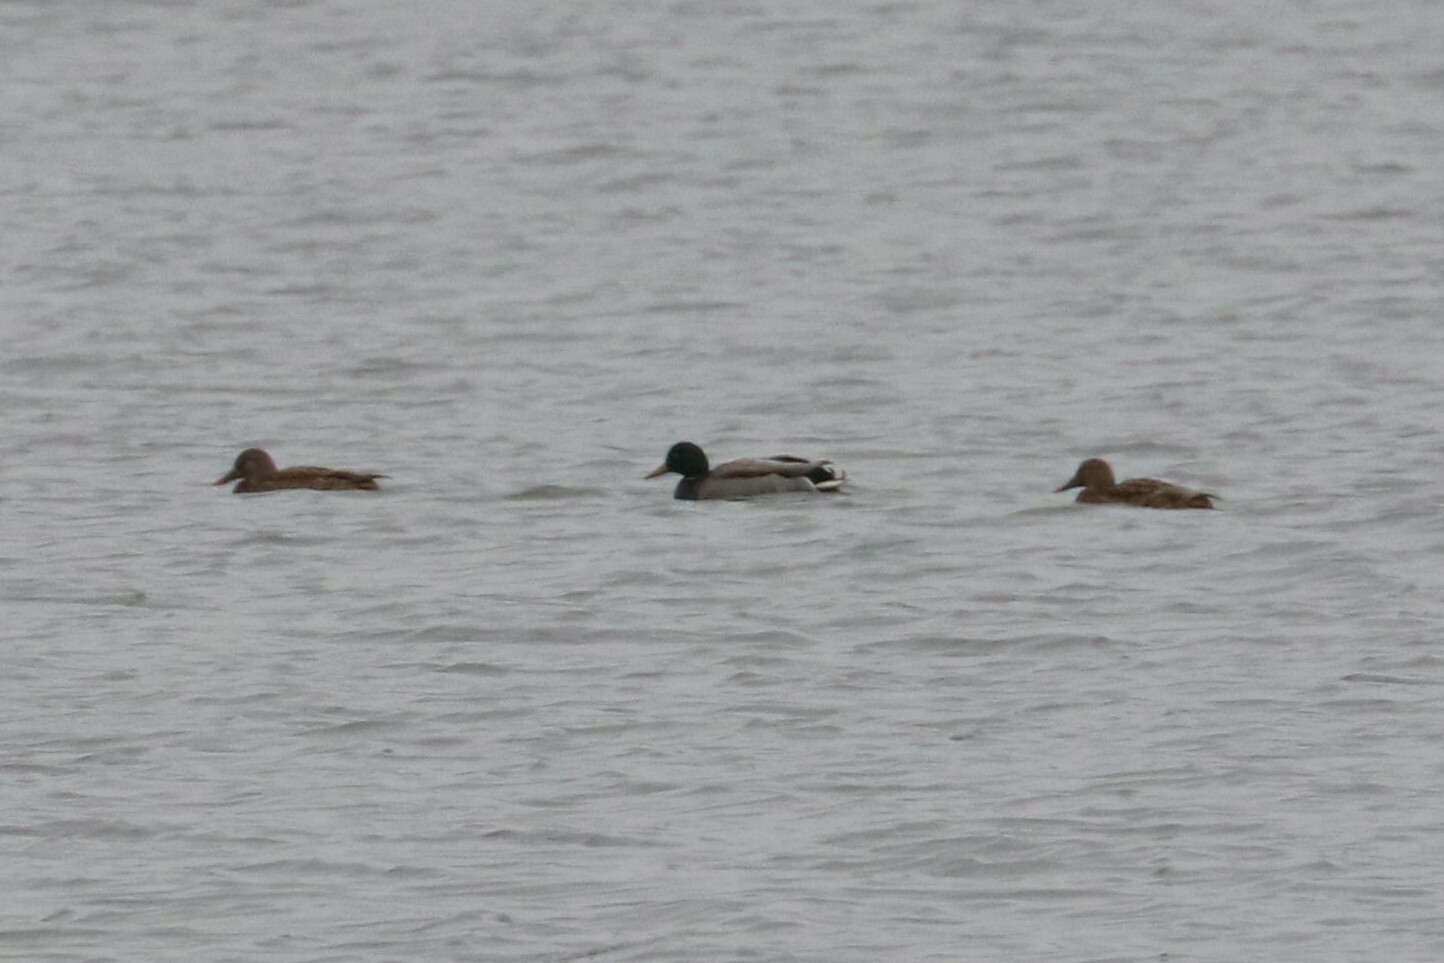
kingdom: Animalia
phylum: Chordata
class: Aves
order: Anseriformes
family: Anatidae
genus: Anas
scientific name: Anas platyrhynchos
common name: Mallard
